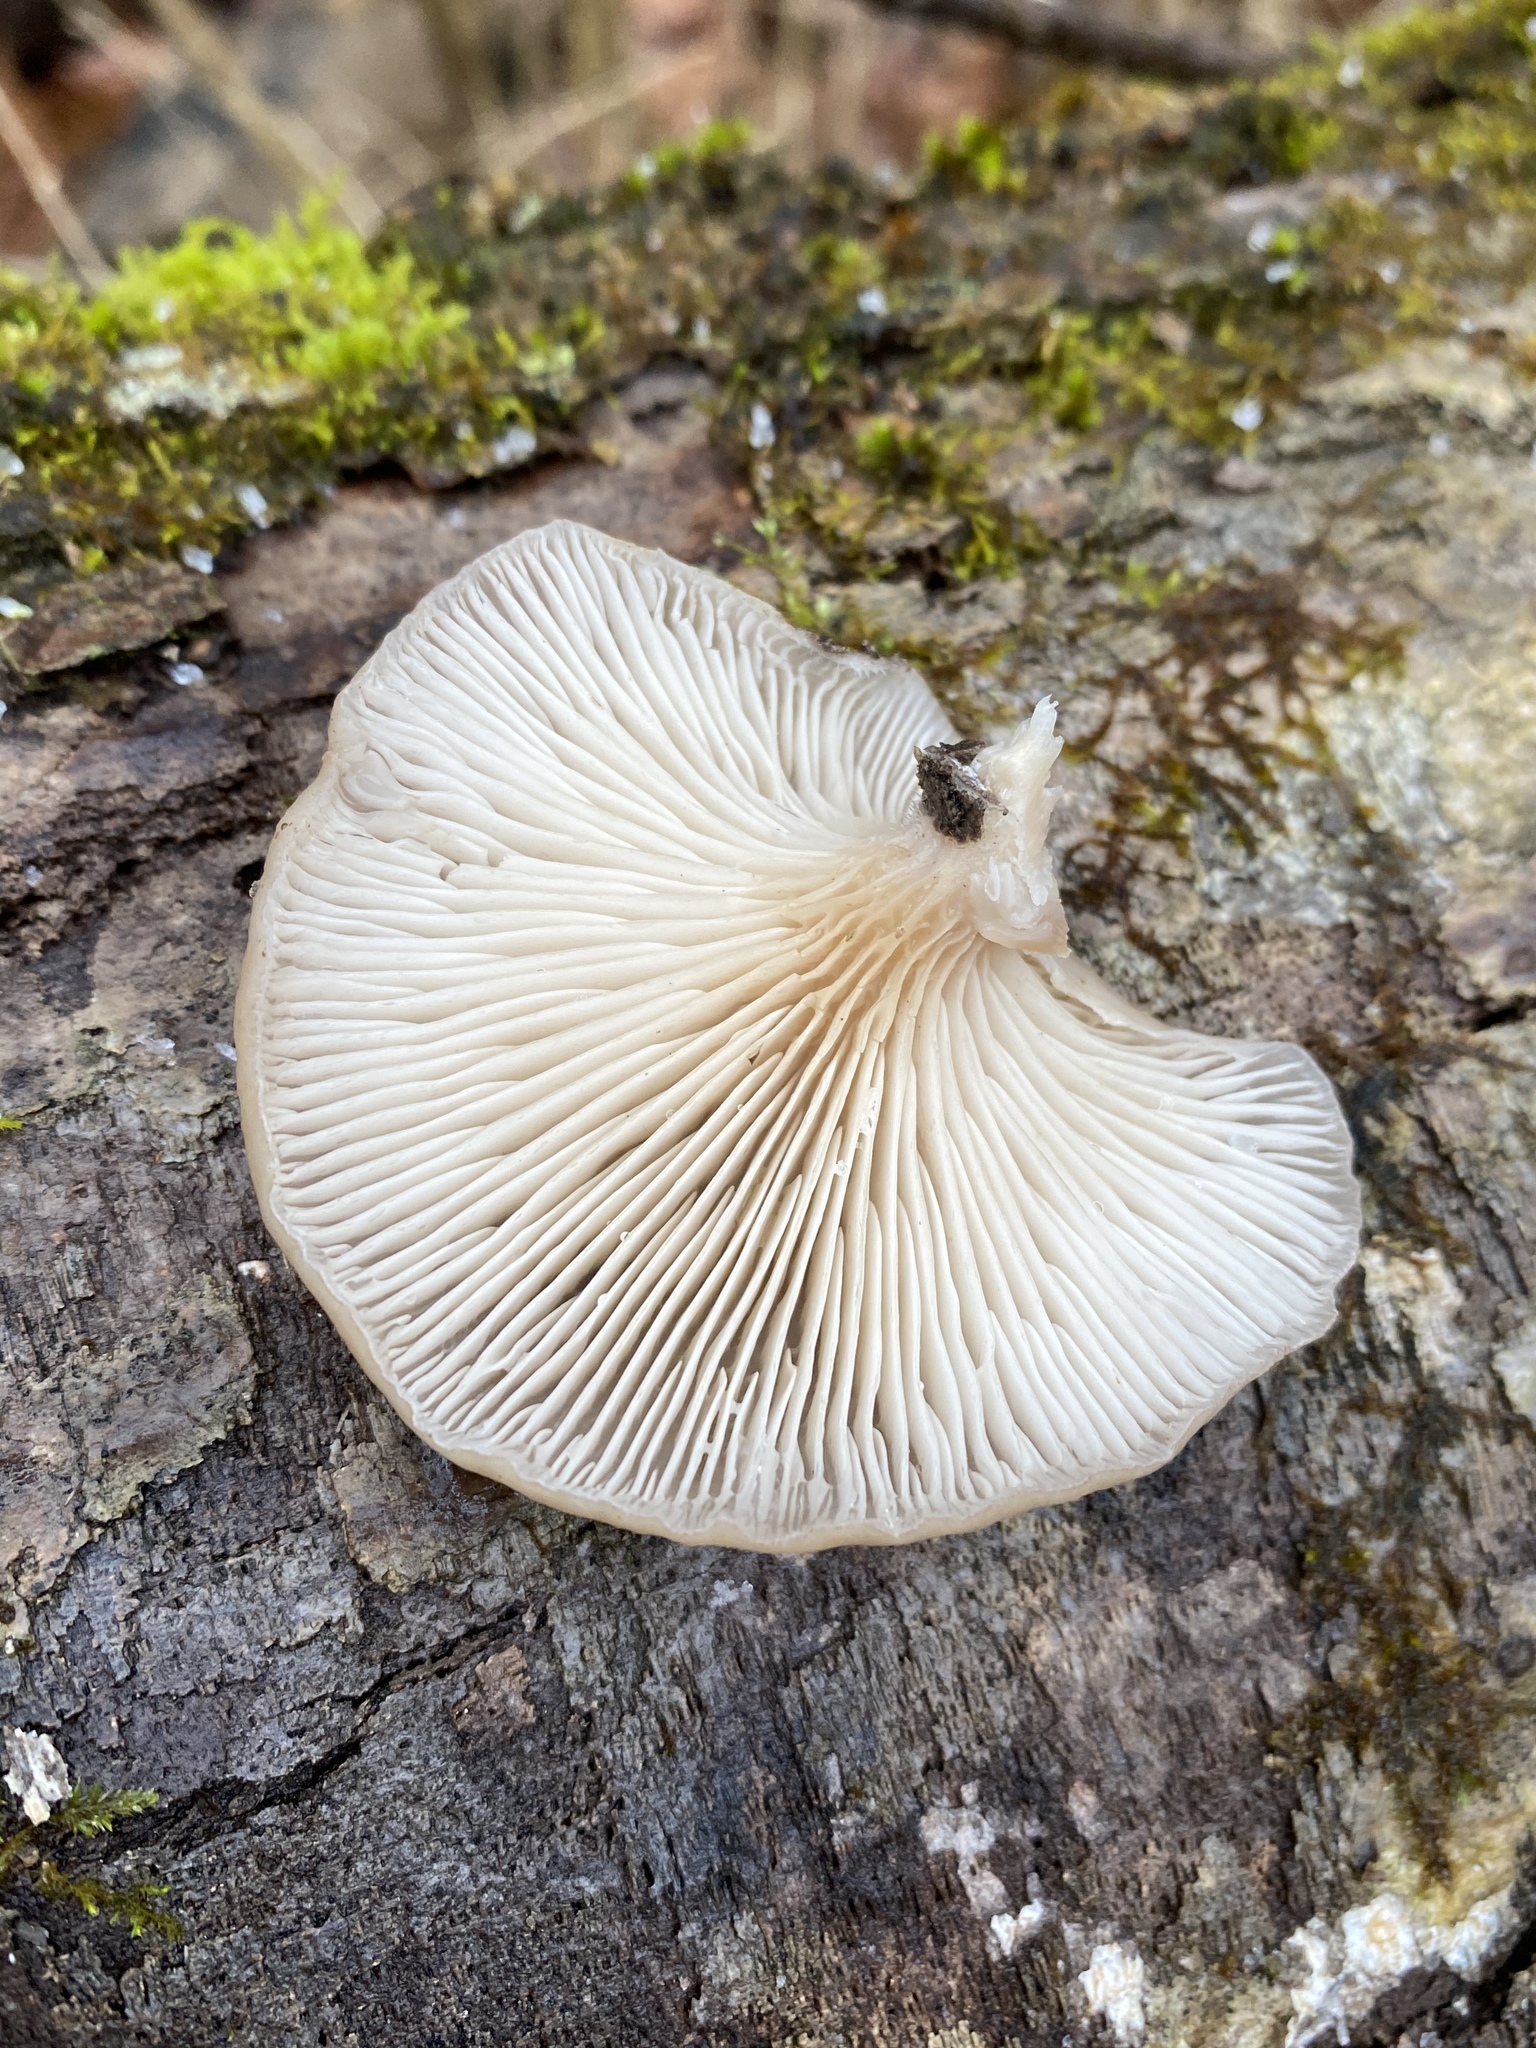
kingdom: Fungi
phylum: Basidiomycota
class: Agaricomycetes
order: Agaricales
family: Pleurotaceae
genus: Pleurotus
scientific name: Pleurotus ostreatus
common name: Oyster mushroom
